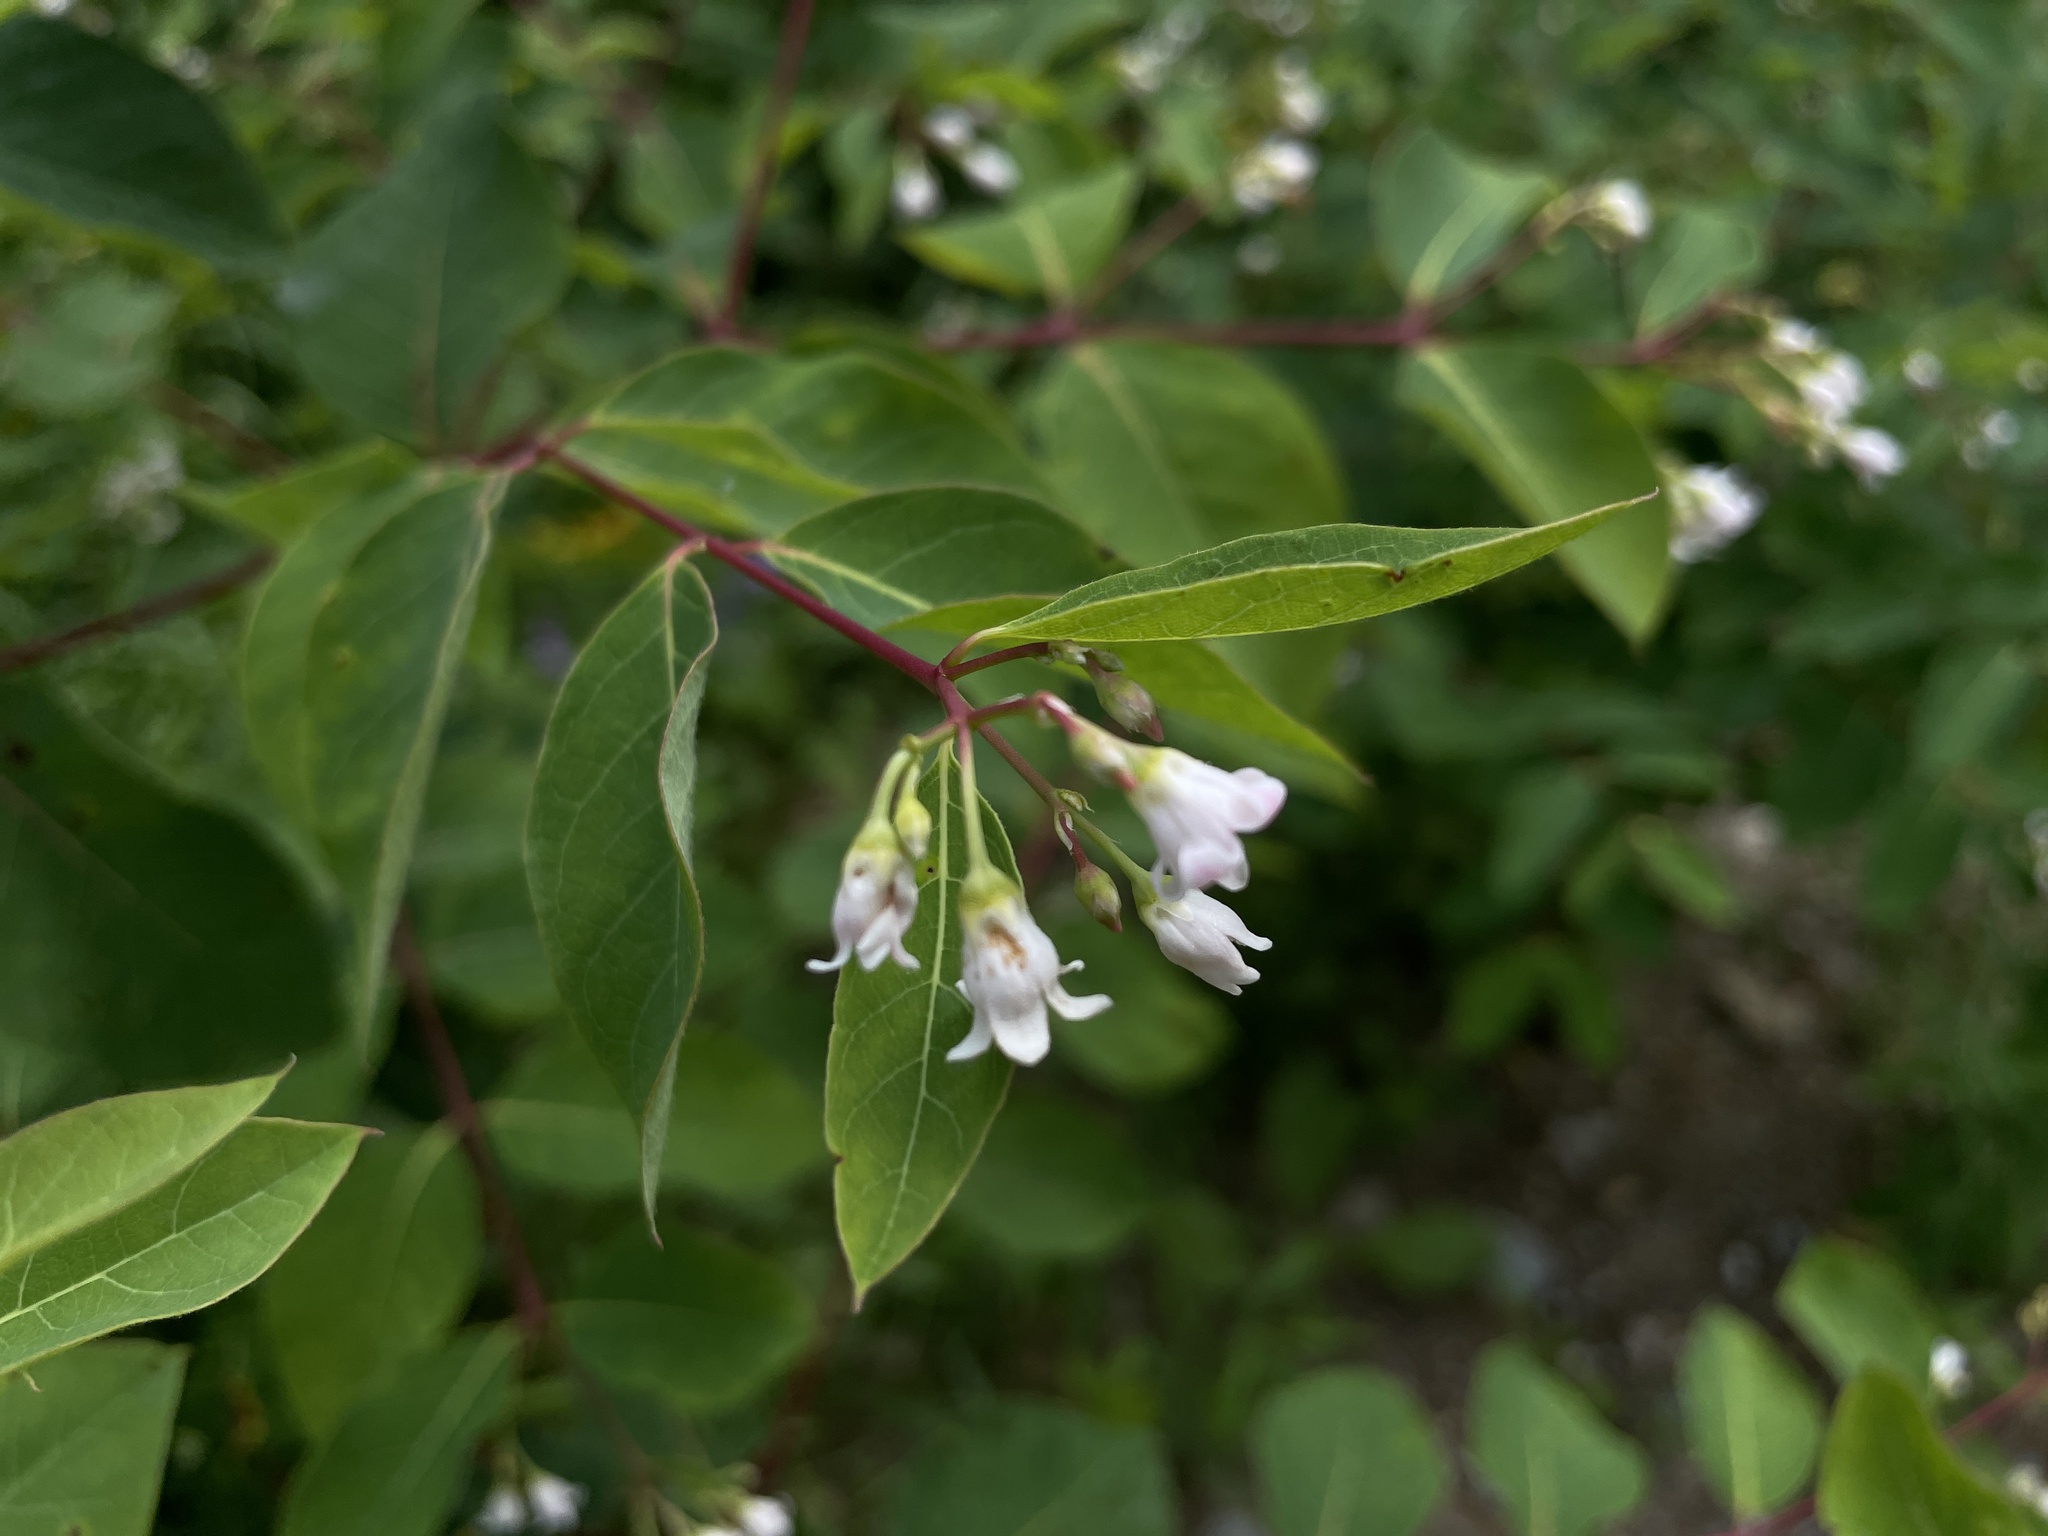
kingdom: Plantae
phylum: Tracheophyta
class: Magnoliopsida
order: Gentianales
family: Apocynaceae
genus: Apocynum
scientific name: Apocynum androsaemifolium
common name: Spreading dogbane
